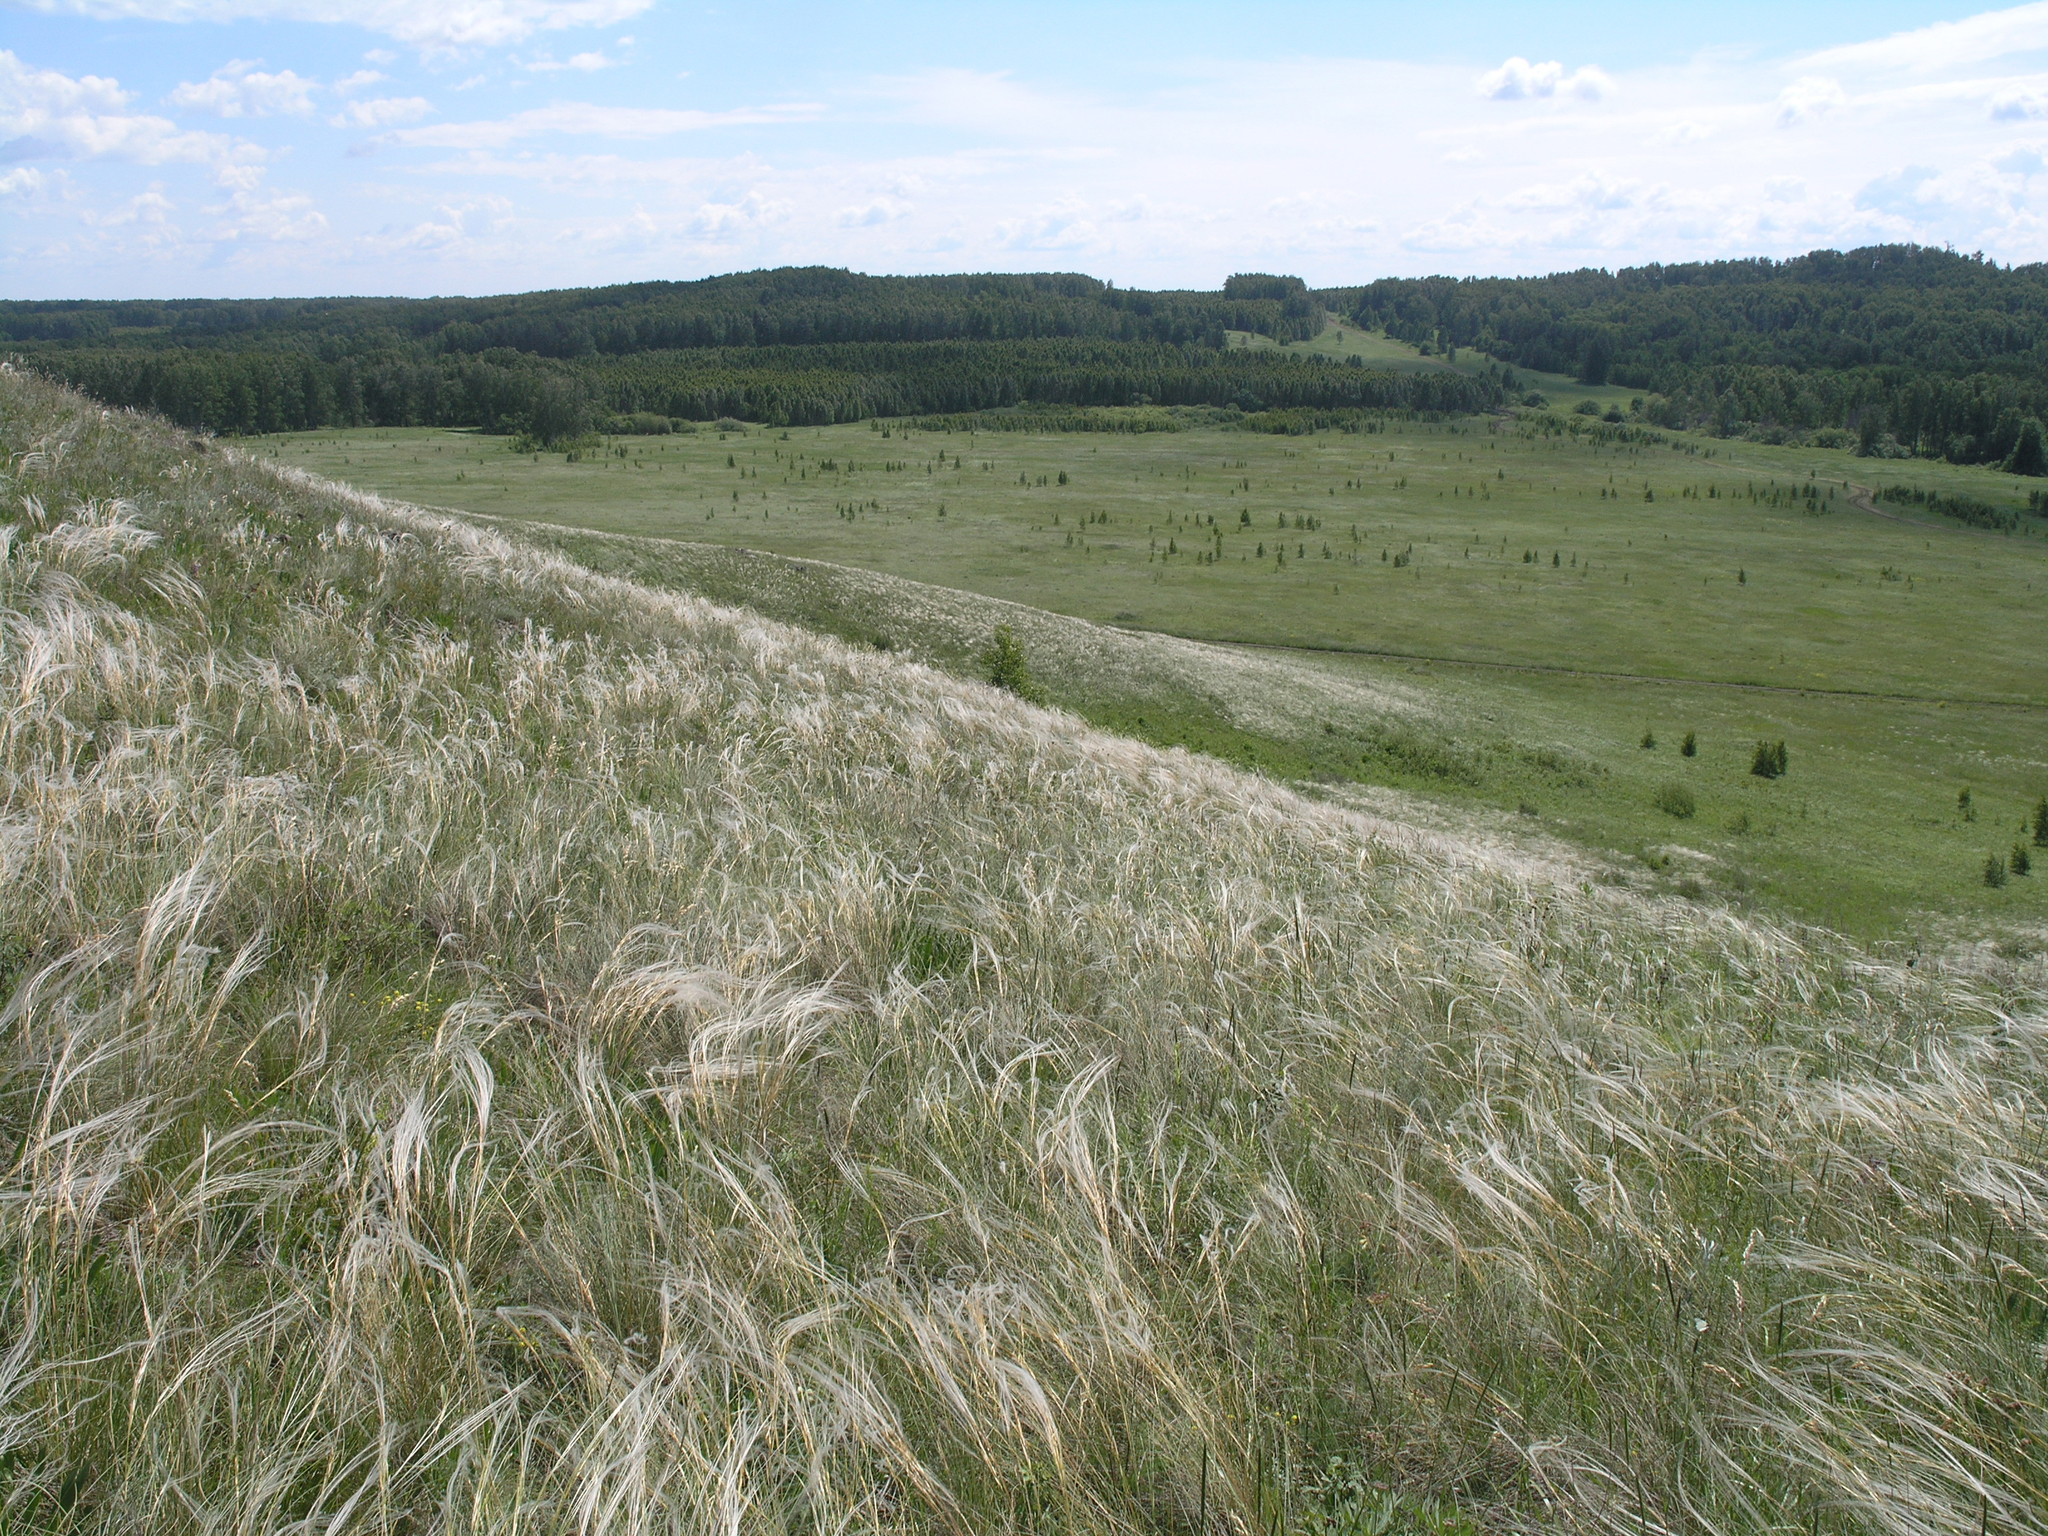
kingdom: Plantae
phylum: Tracheophyta
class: Liliopsida
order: Poales
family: Poaceae
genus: Stipa
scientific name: Stipa pennata
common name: European feather grass
